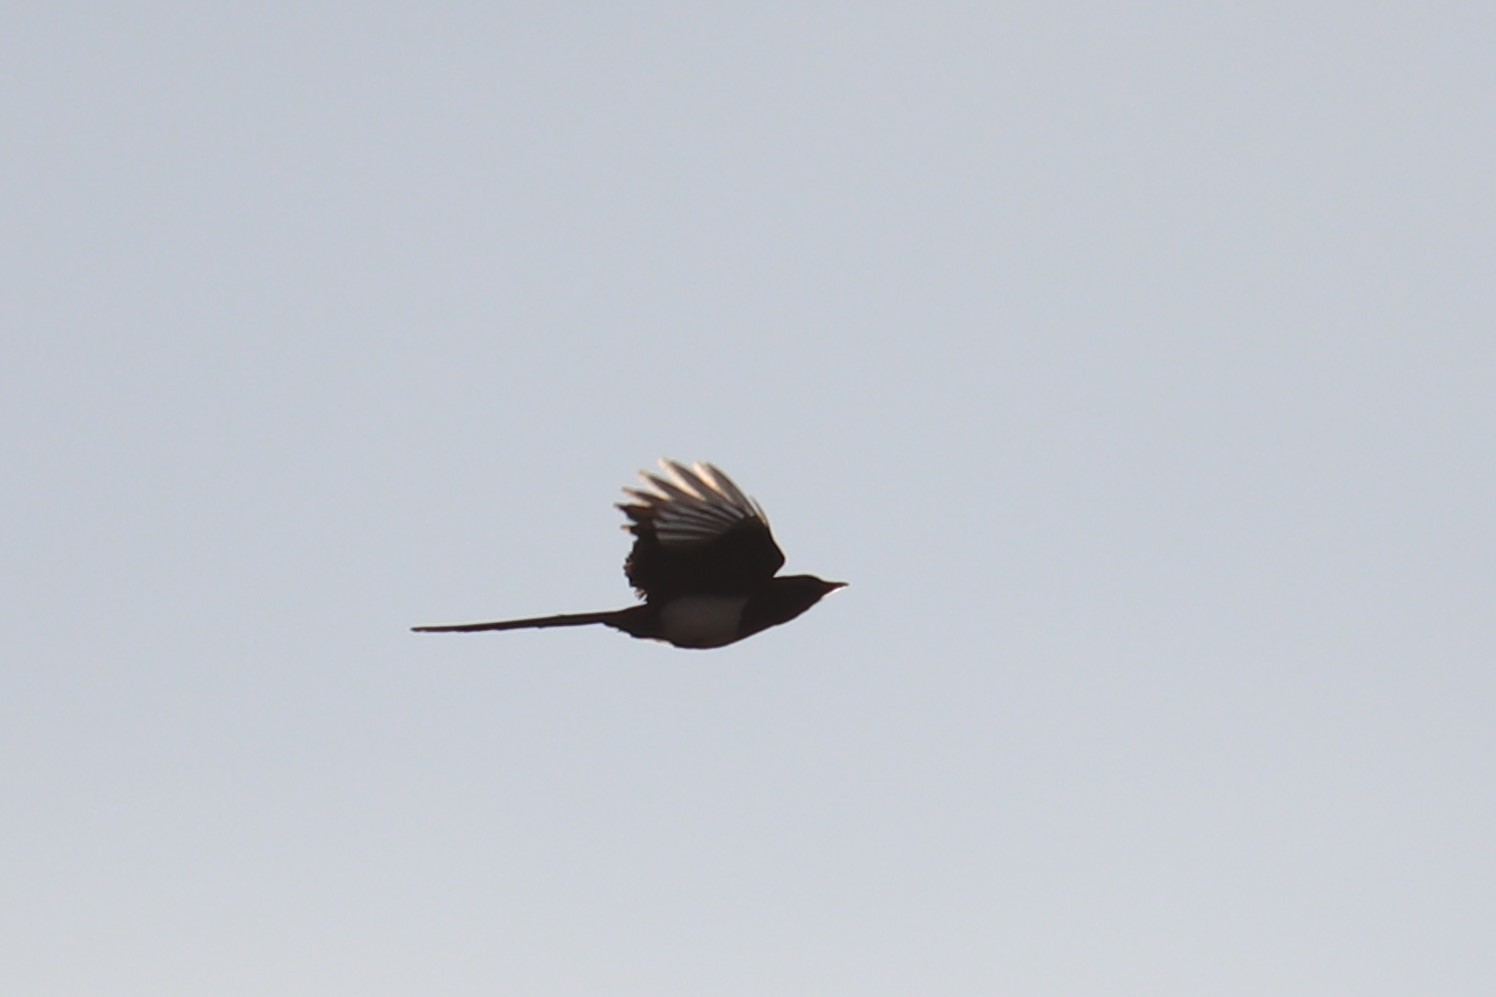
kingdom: Animalia
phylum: Chordata
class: Aves
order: Passeriformes
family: Corvidae
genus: Pica
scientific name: Pica hudsonia
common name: Black-billed magpie
